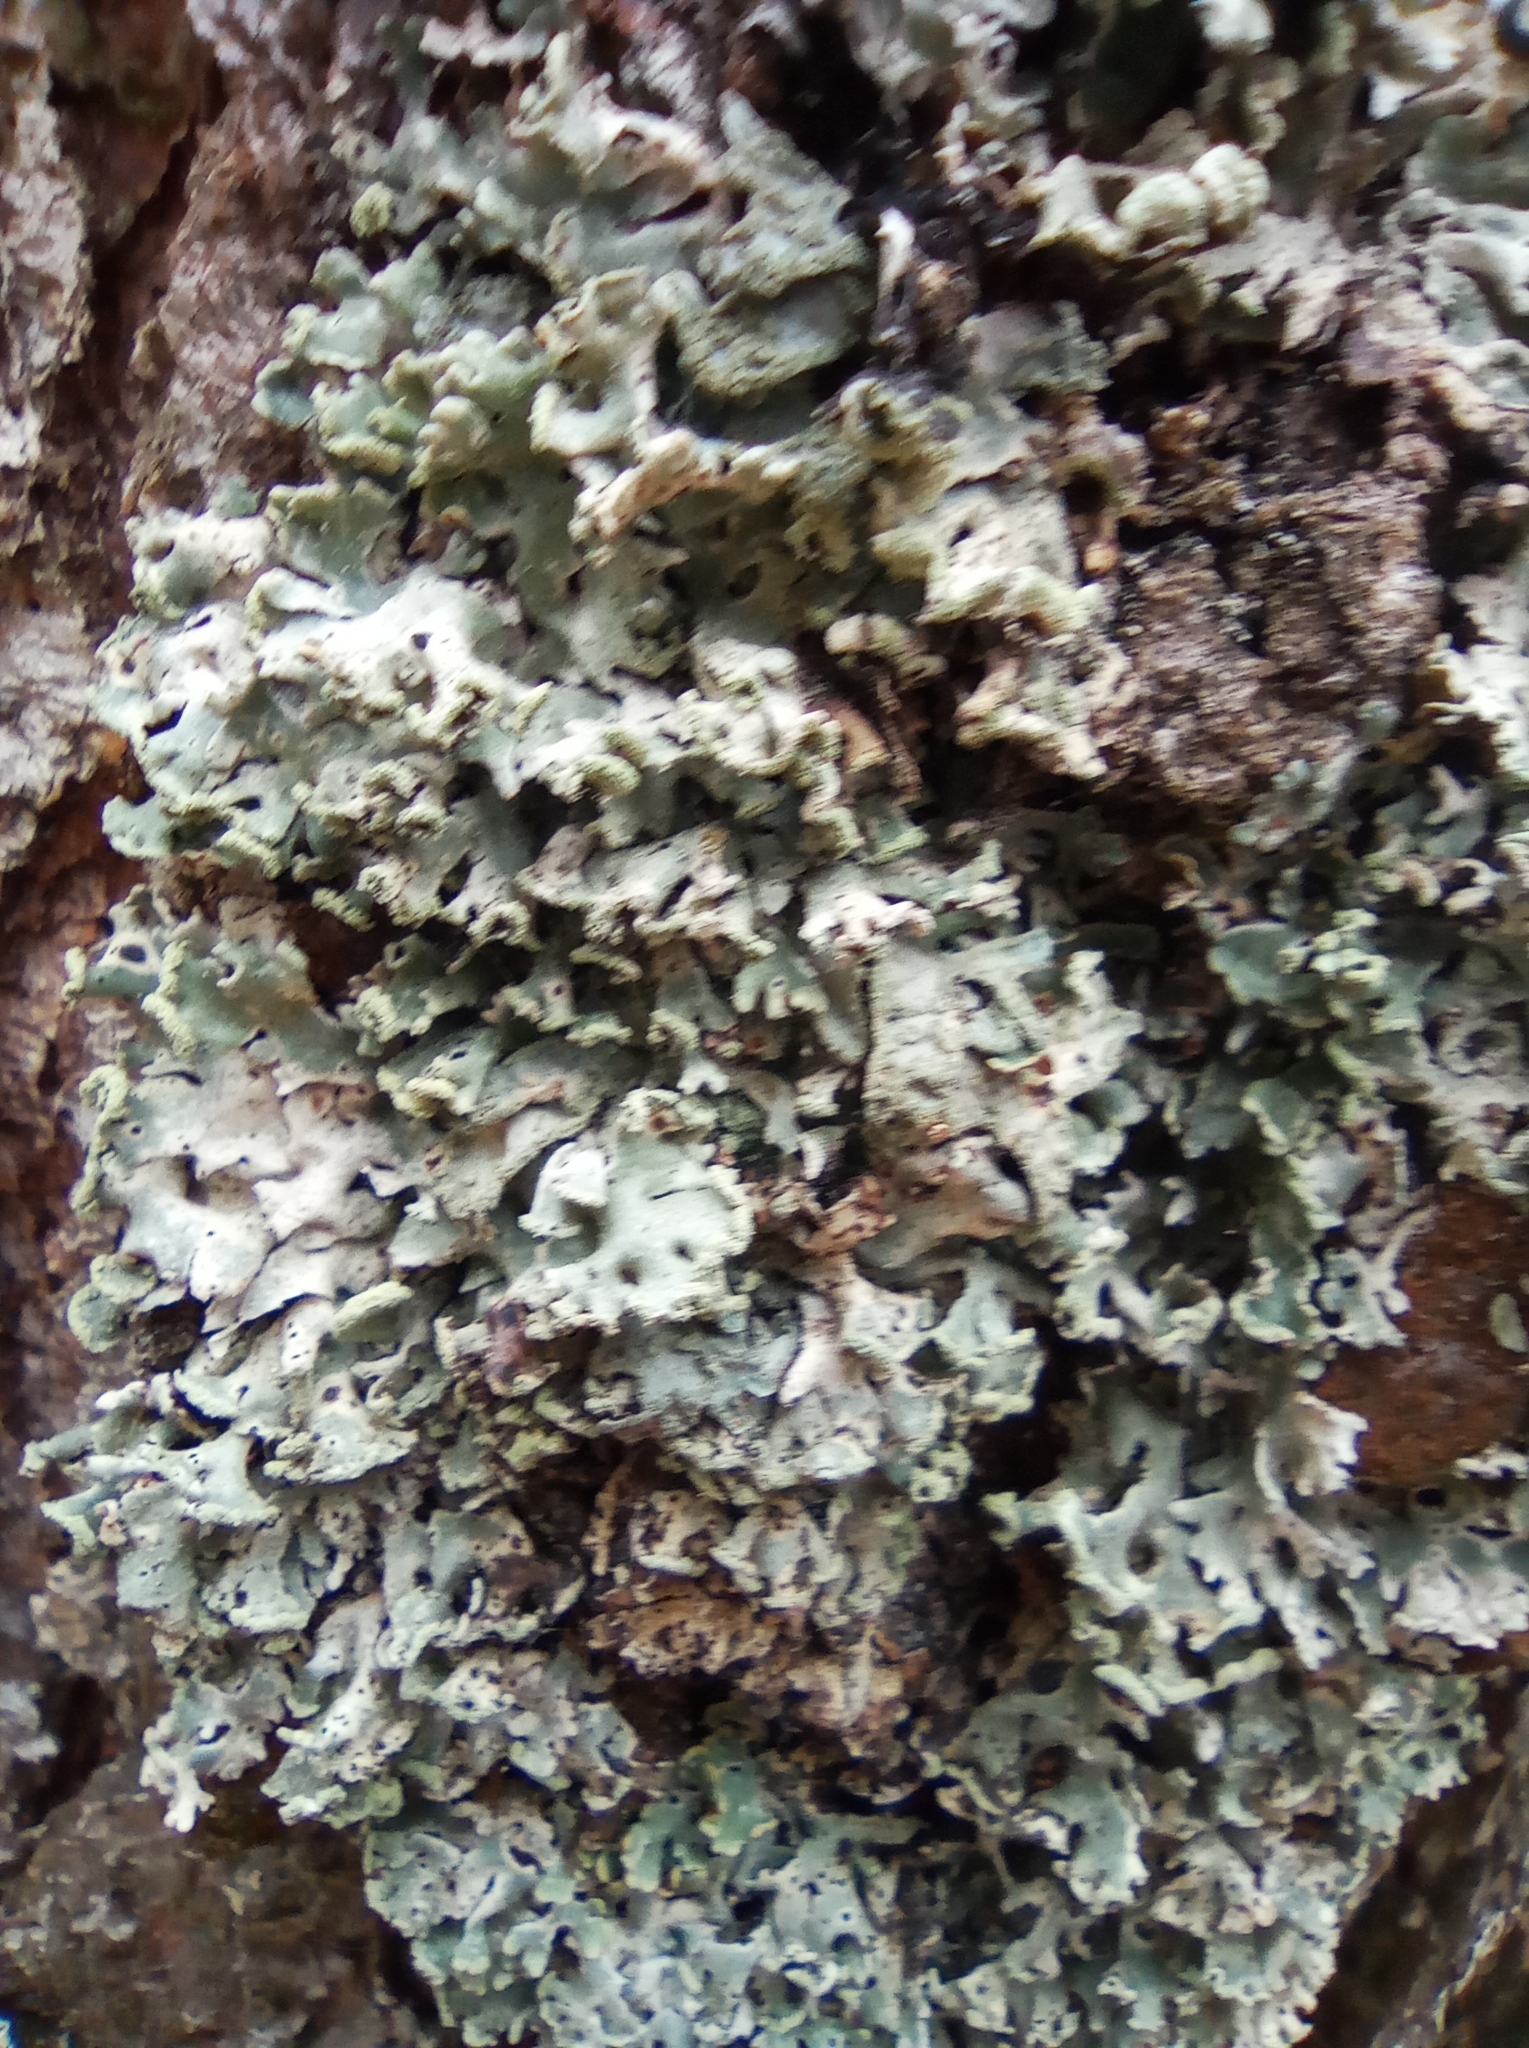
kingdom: Fungi
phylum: Ascomycota
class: Lecanoromycetes
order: Lecanorales
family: Parmeliaceae
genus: Hypogymnia
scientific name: Hypogymnia physodes
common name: Dark crottle
